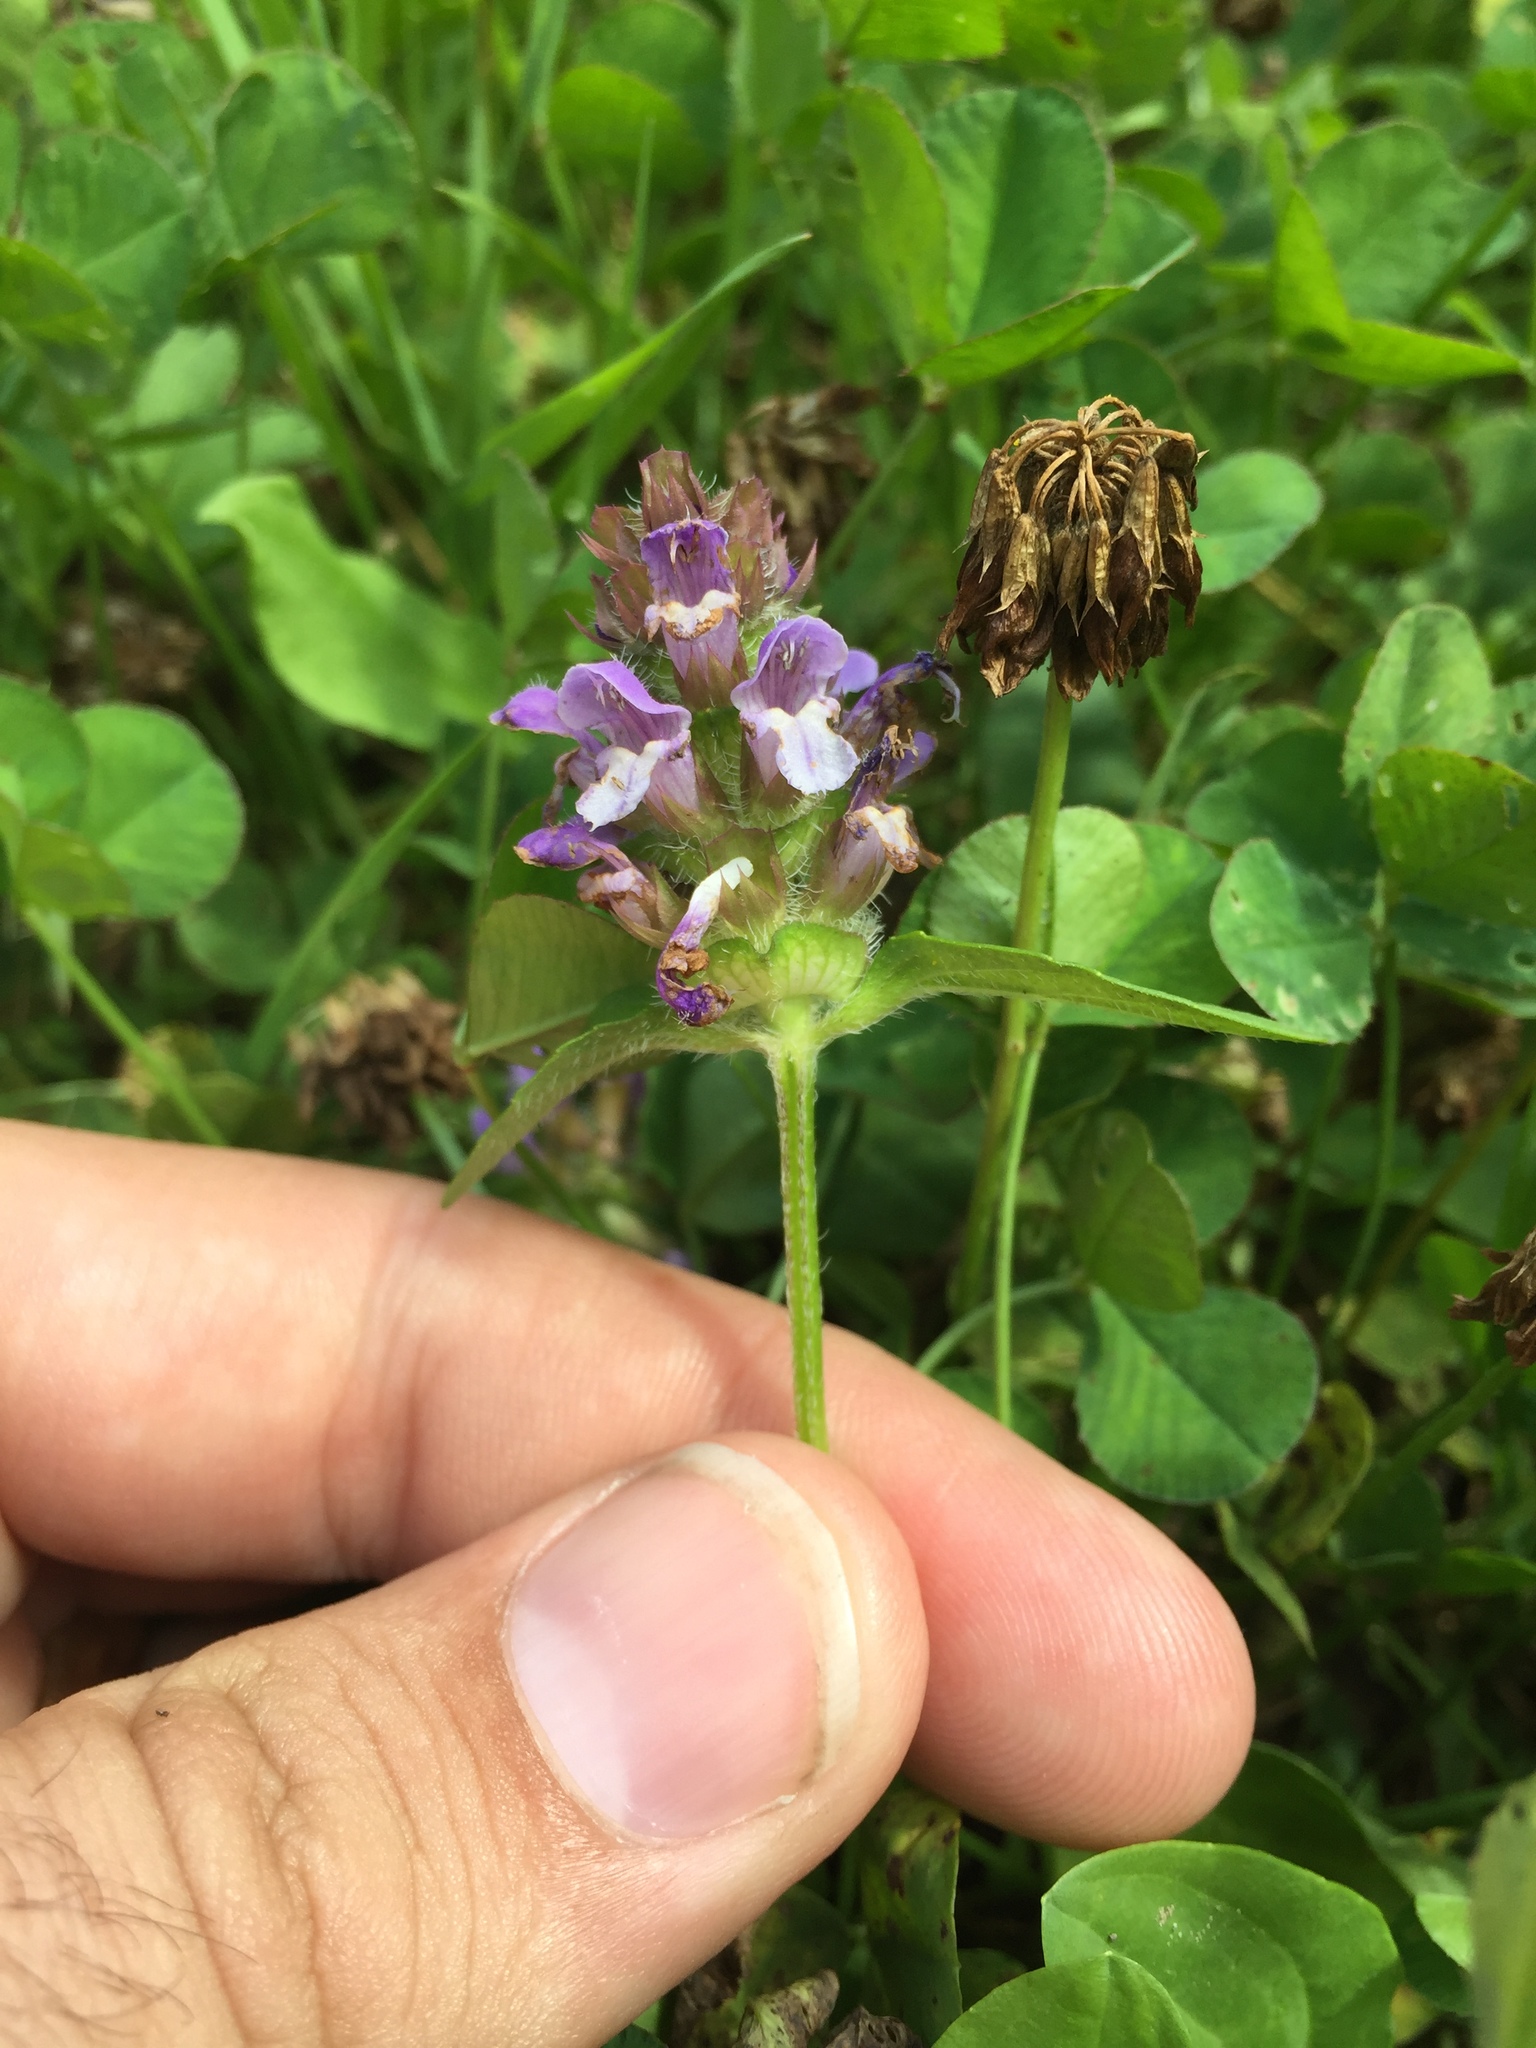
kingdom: Plantae
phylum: Tracheophyta
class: Magnoliopsida
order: Lamiales
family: Lamiaceae
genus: Prunella
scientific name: Prunella vulgaris
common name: Heal-all
